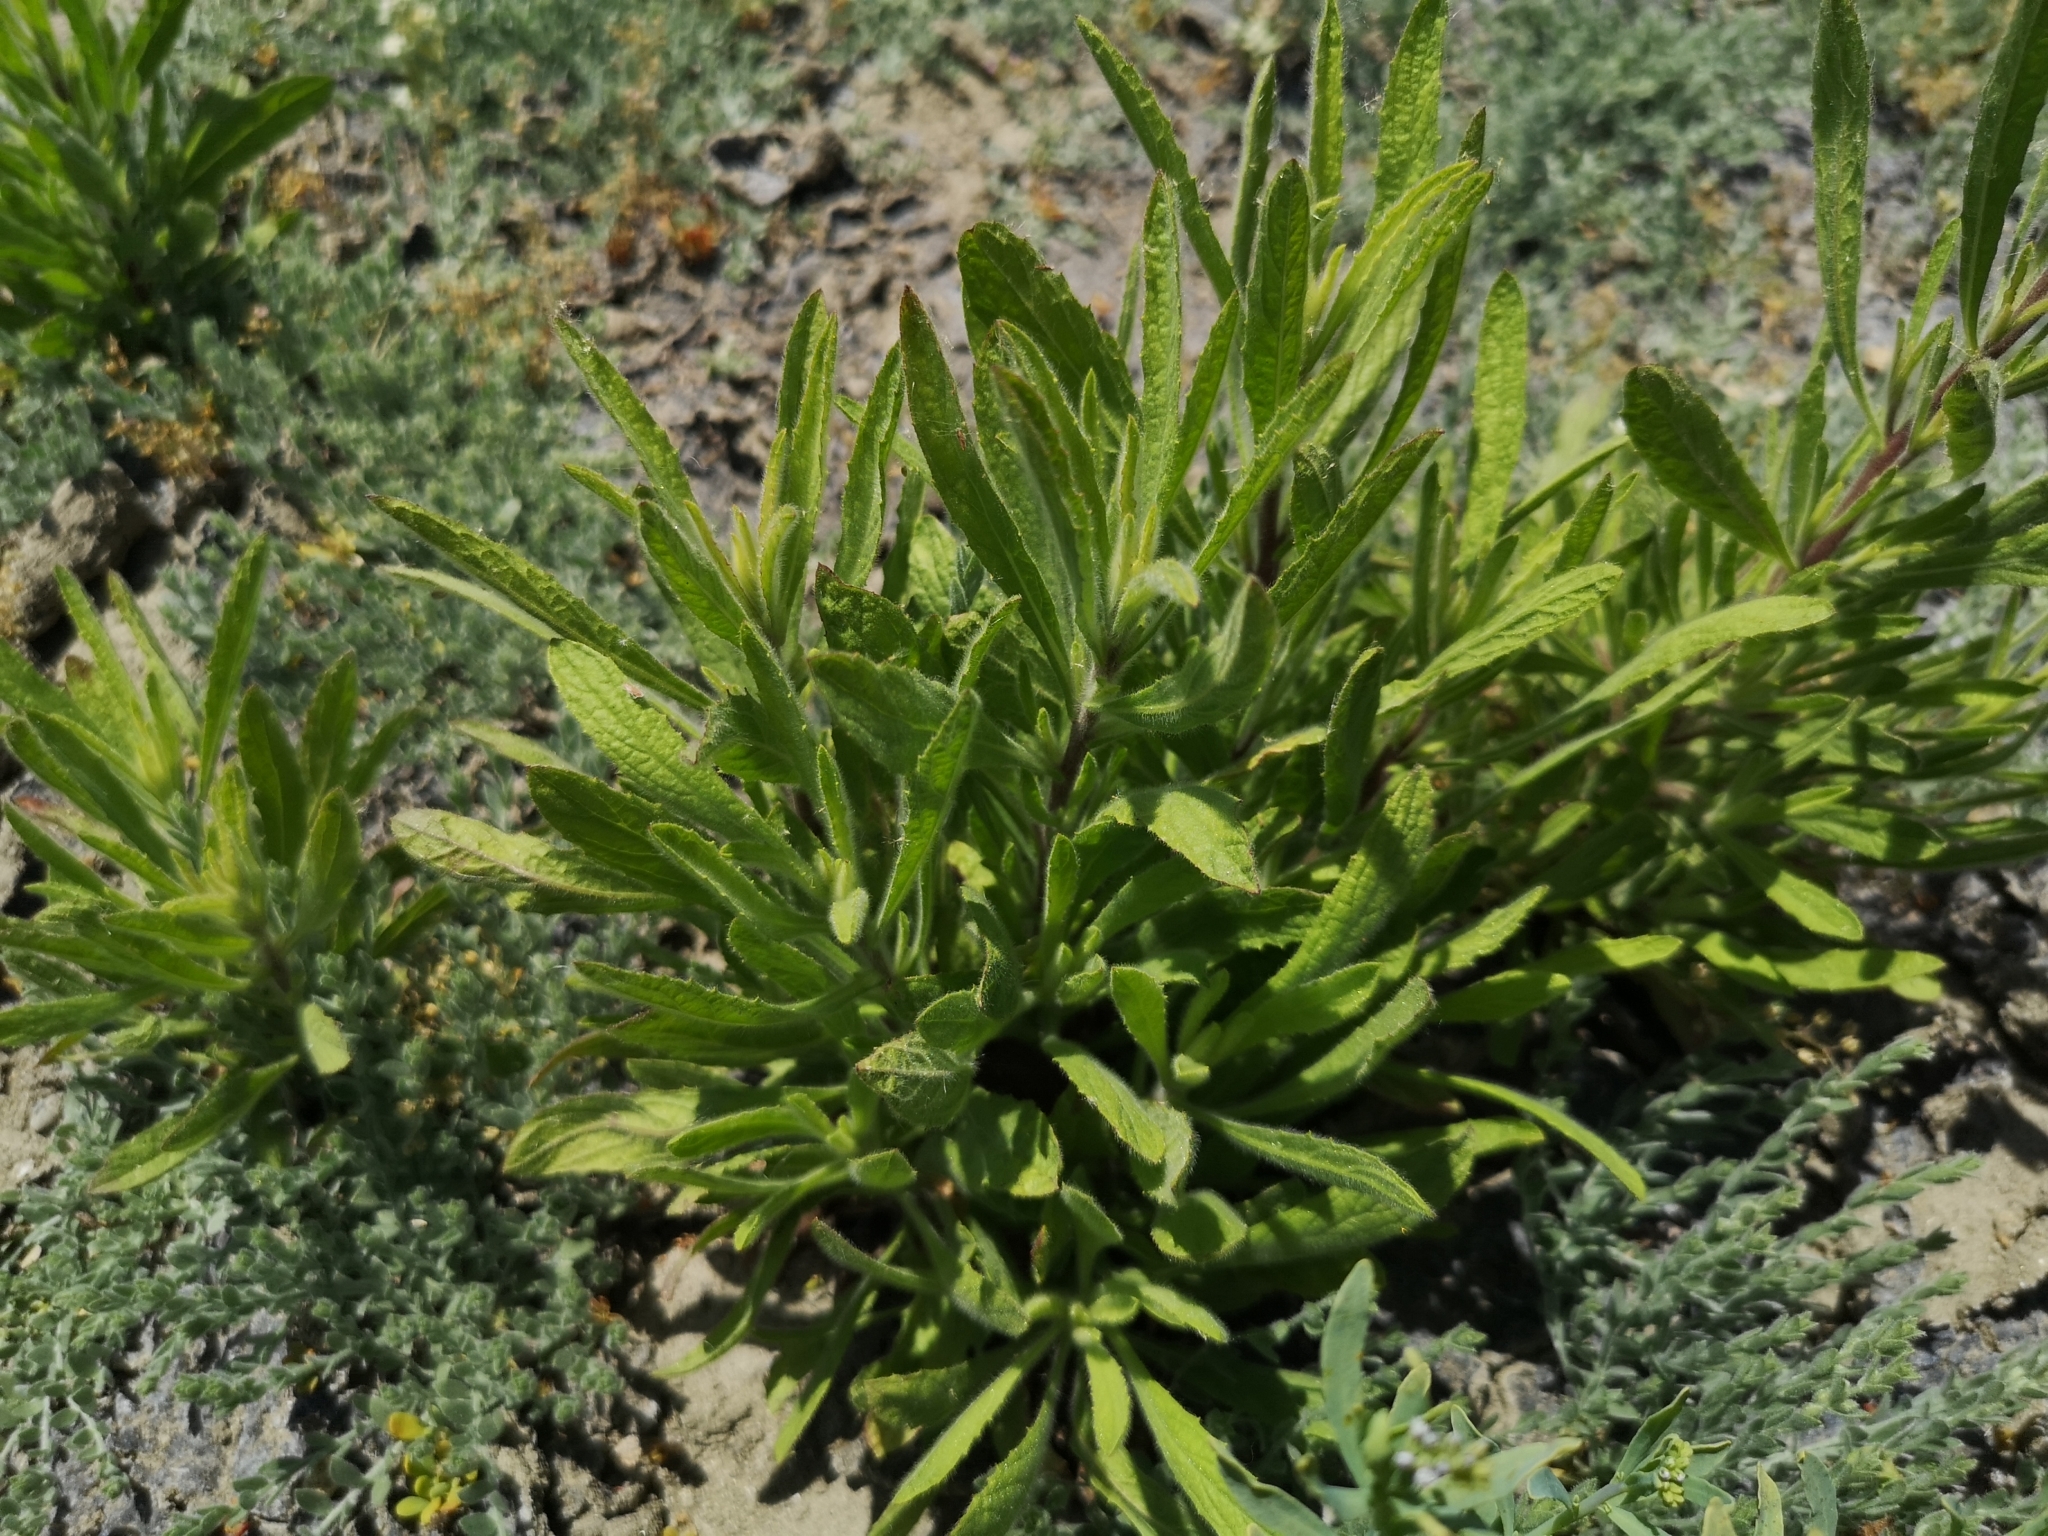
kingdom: Plantae
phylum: Tracheophyta
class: Magnoliopsida
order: Asterales
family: Asteraceae
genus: Dittrichia
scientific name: Dittrichia graveolens
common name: Stinking fleabane
